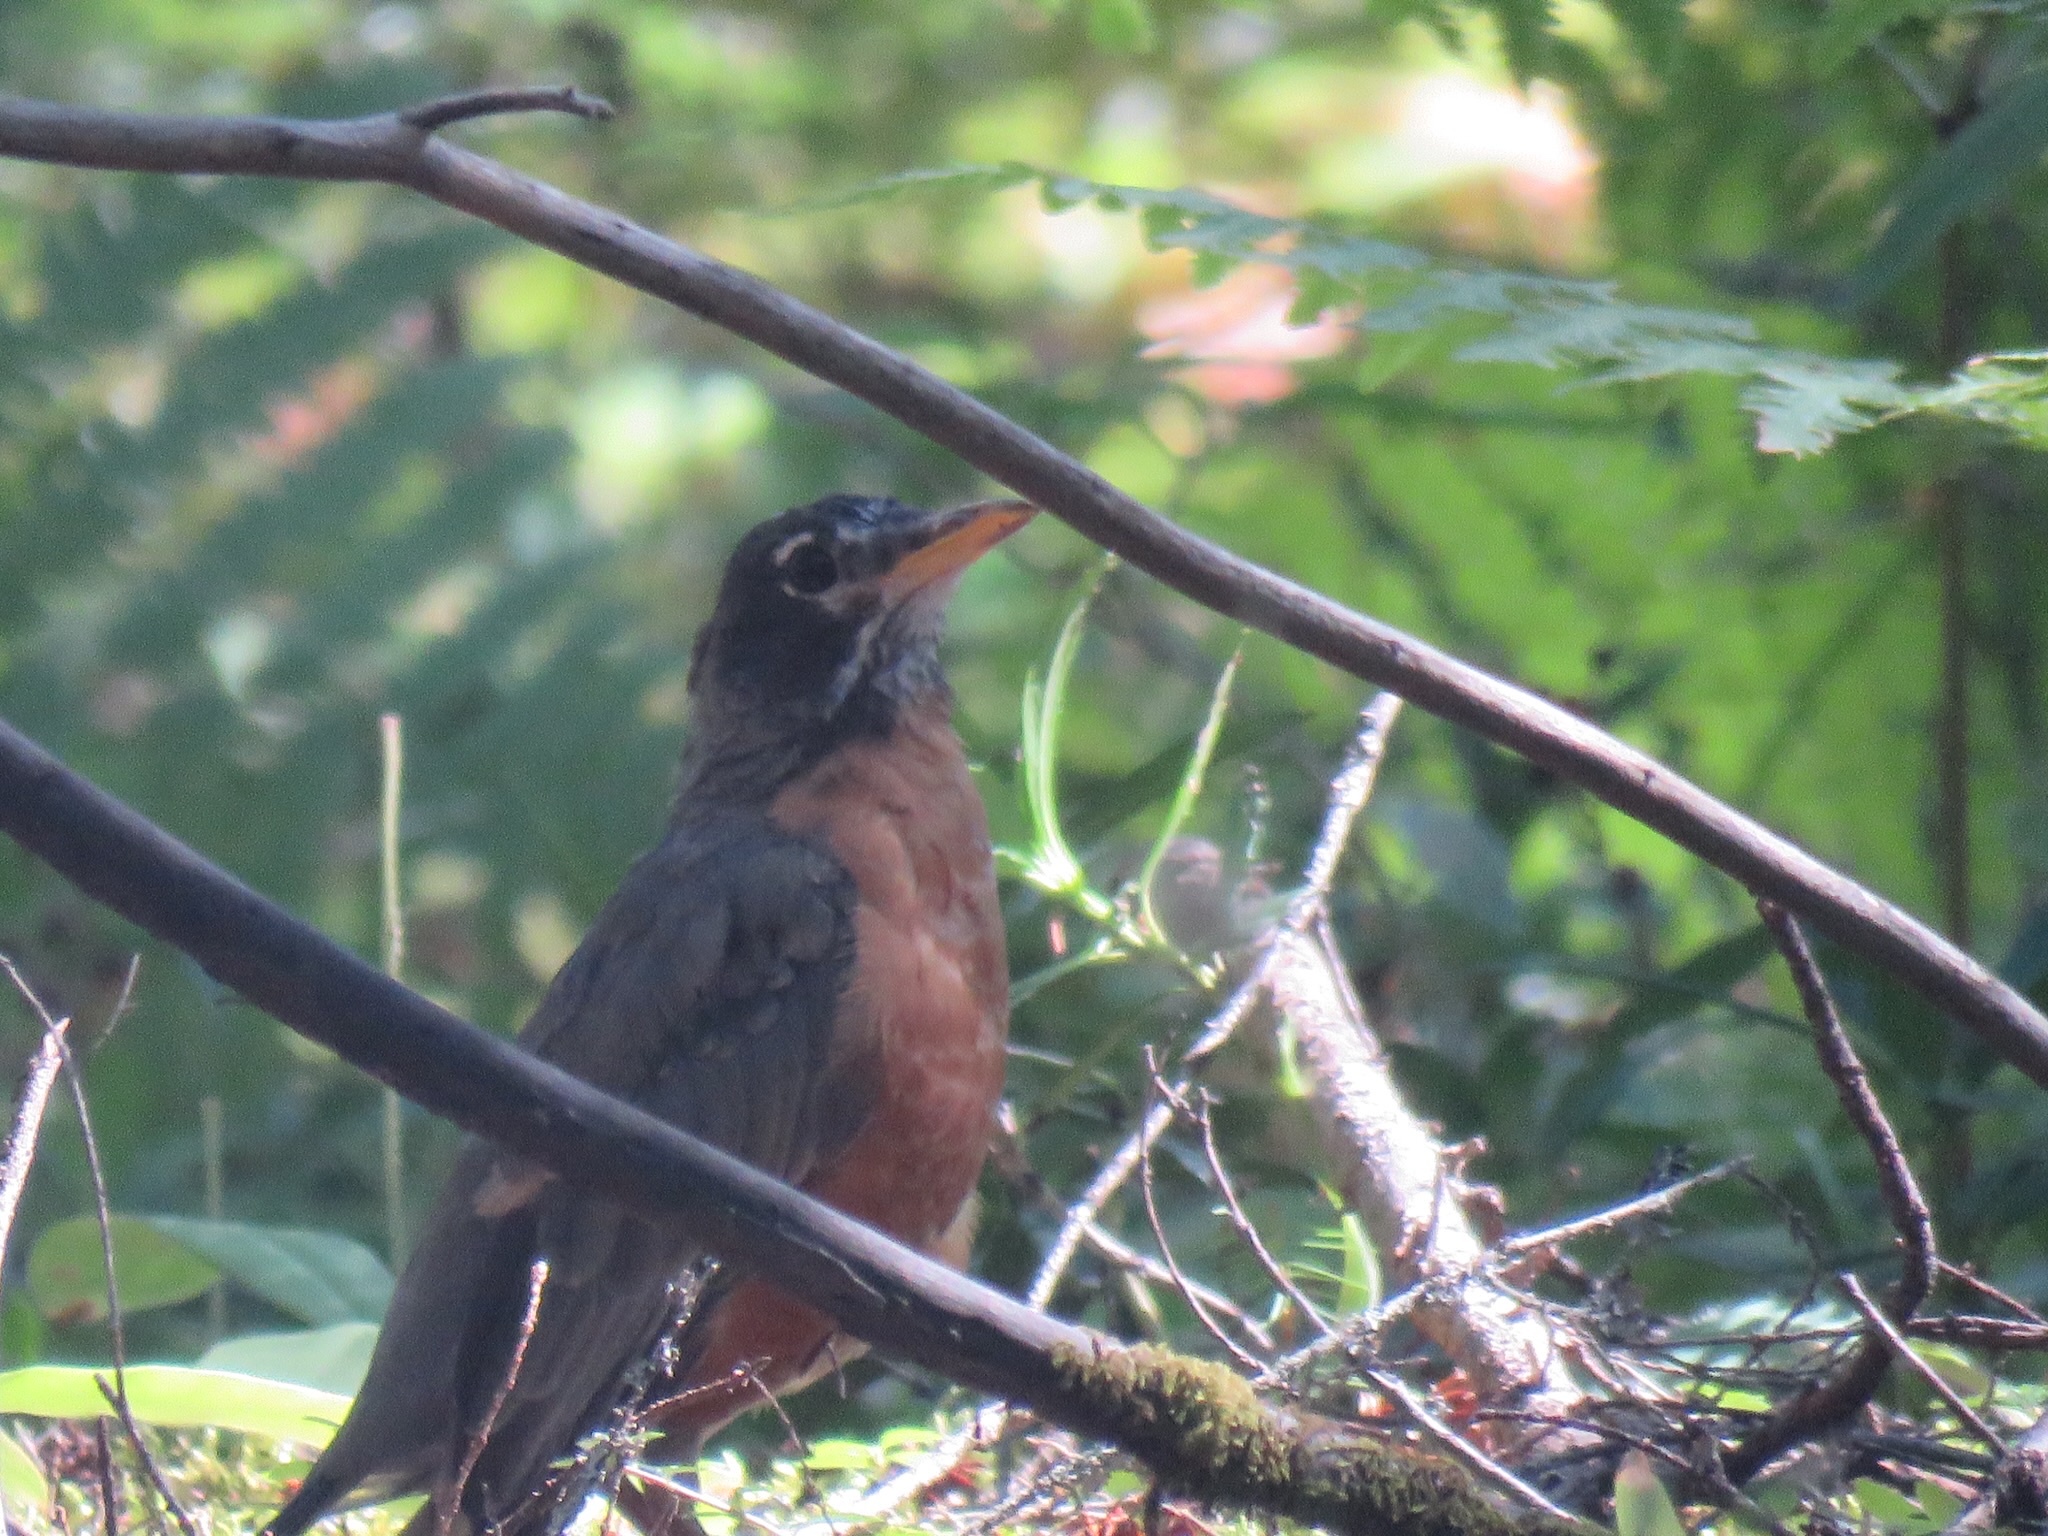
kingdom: Animalia
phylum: Chordata
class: Aves
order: Passeriformes
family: Turdidae
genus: Turdus
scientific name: Turdus migratorius
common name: American robin
